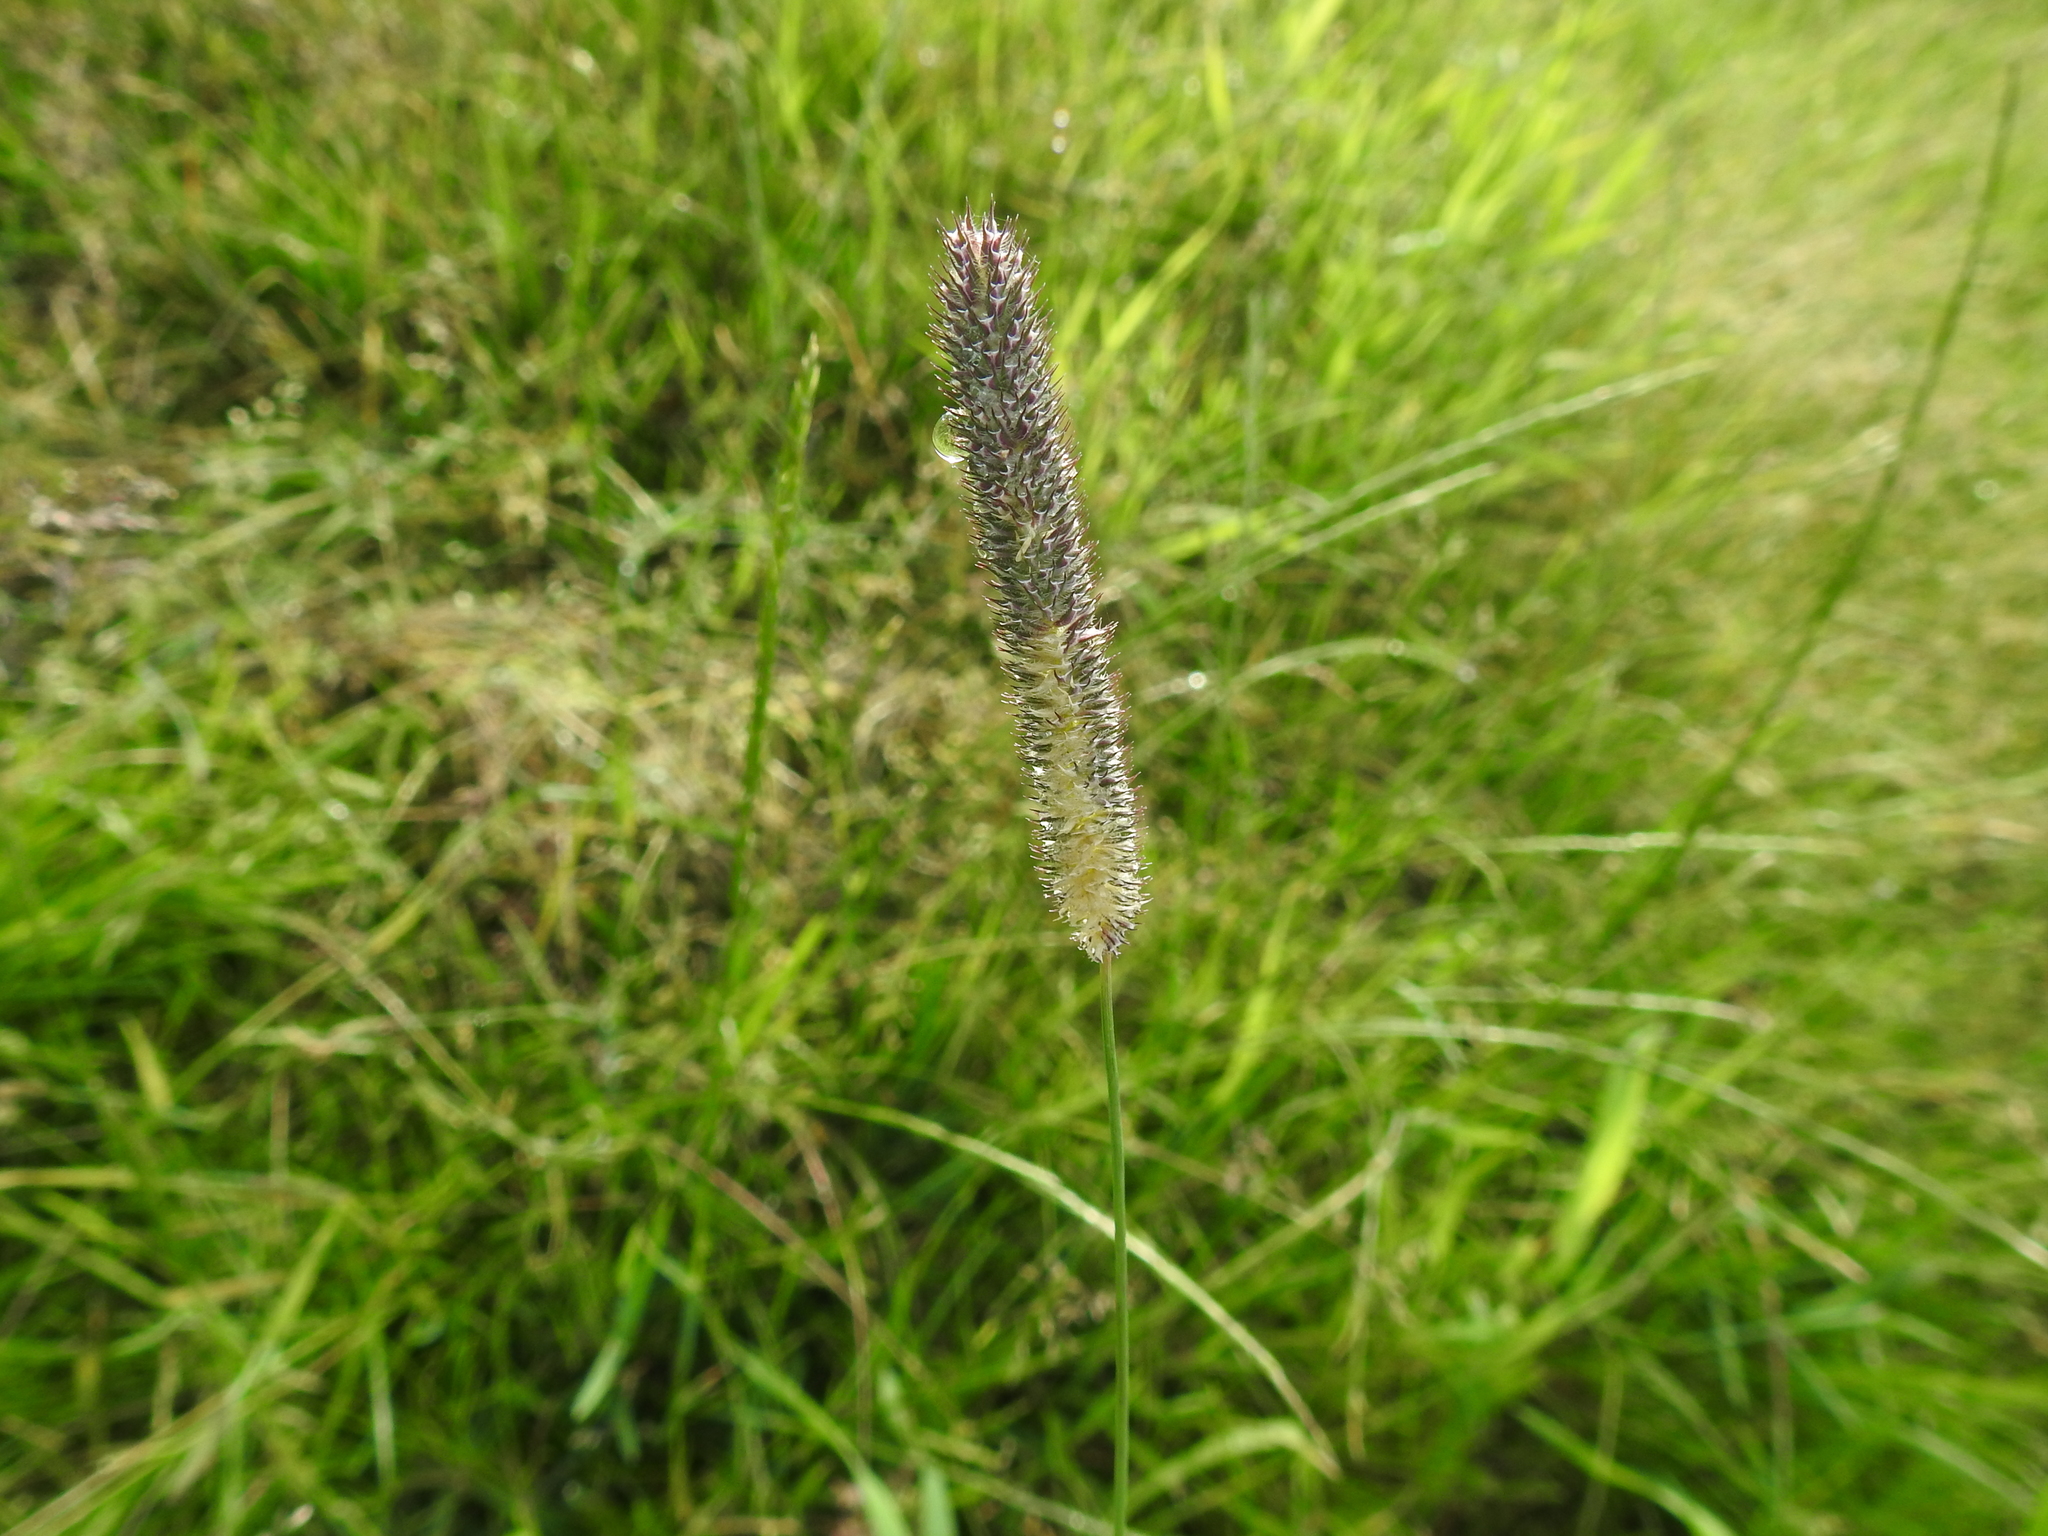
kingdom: Plantae
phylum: Tracheophyta
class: Liliopsida
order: Poales
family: Poaceae
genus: Phleum
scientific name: Phleum pratense
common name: Timothy grass
